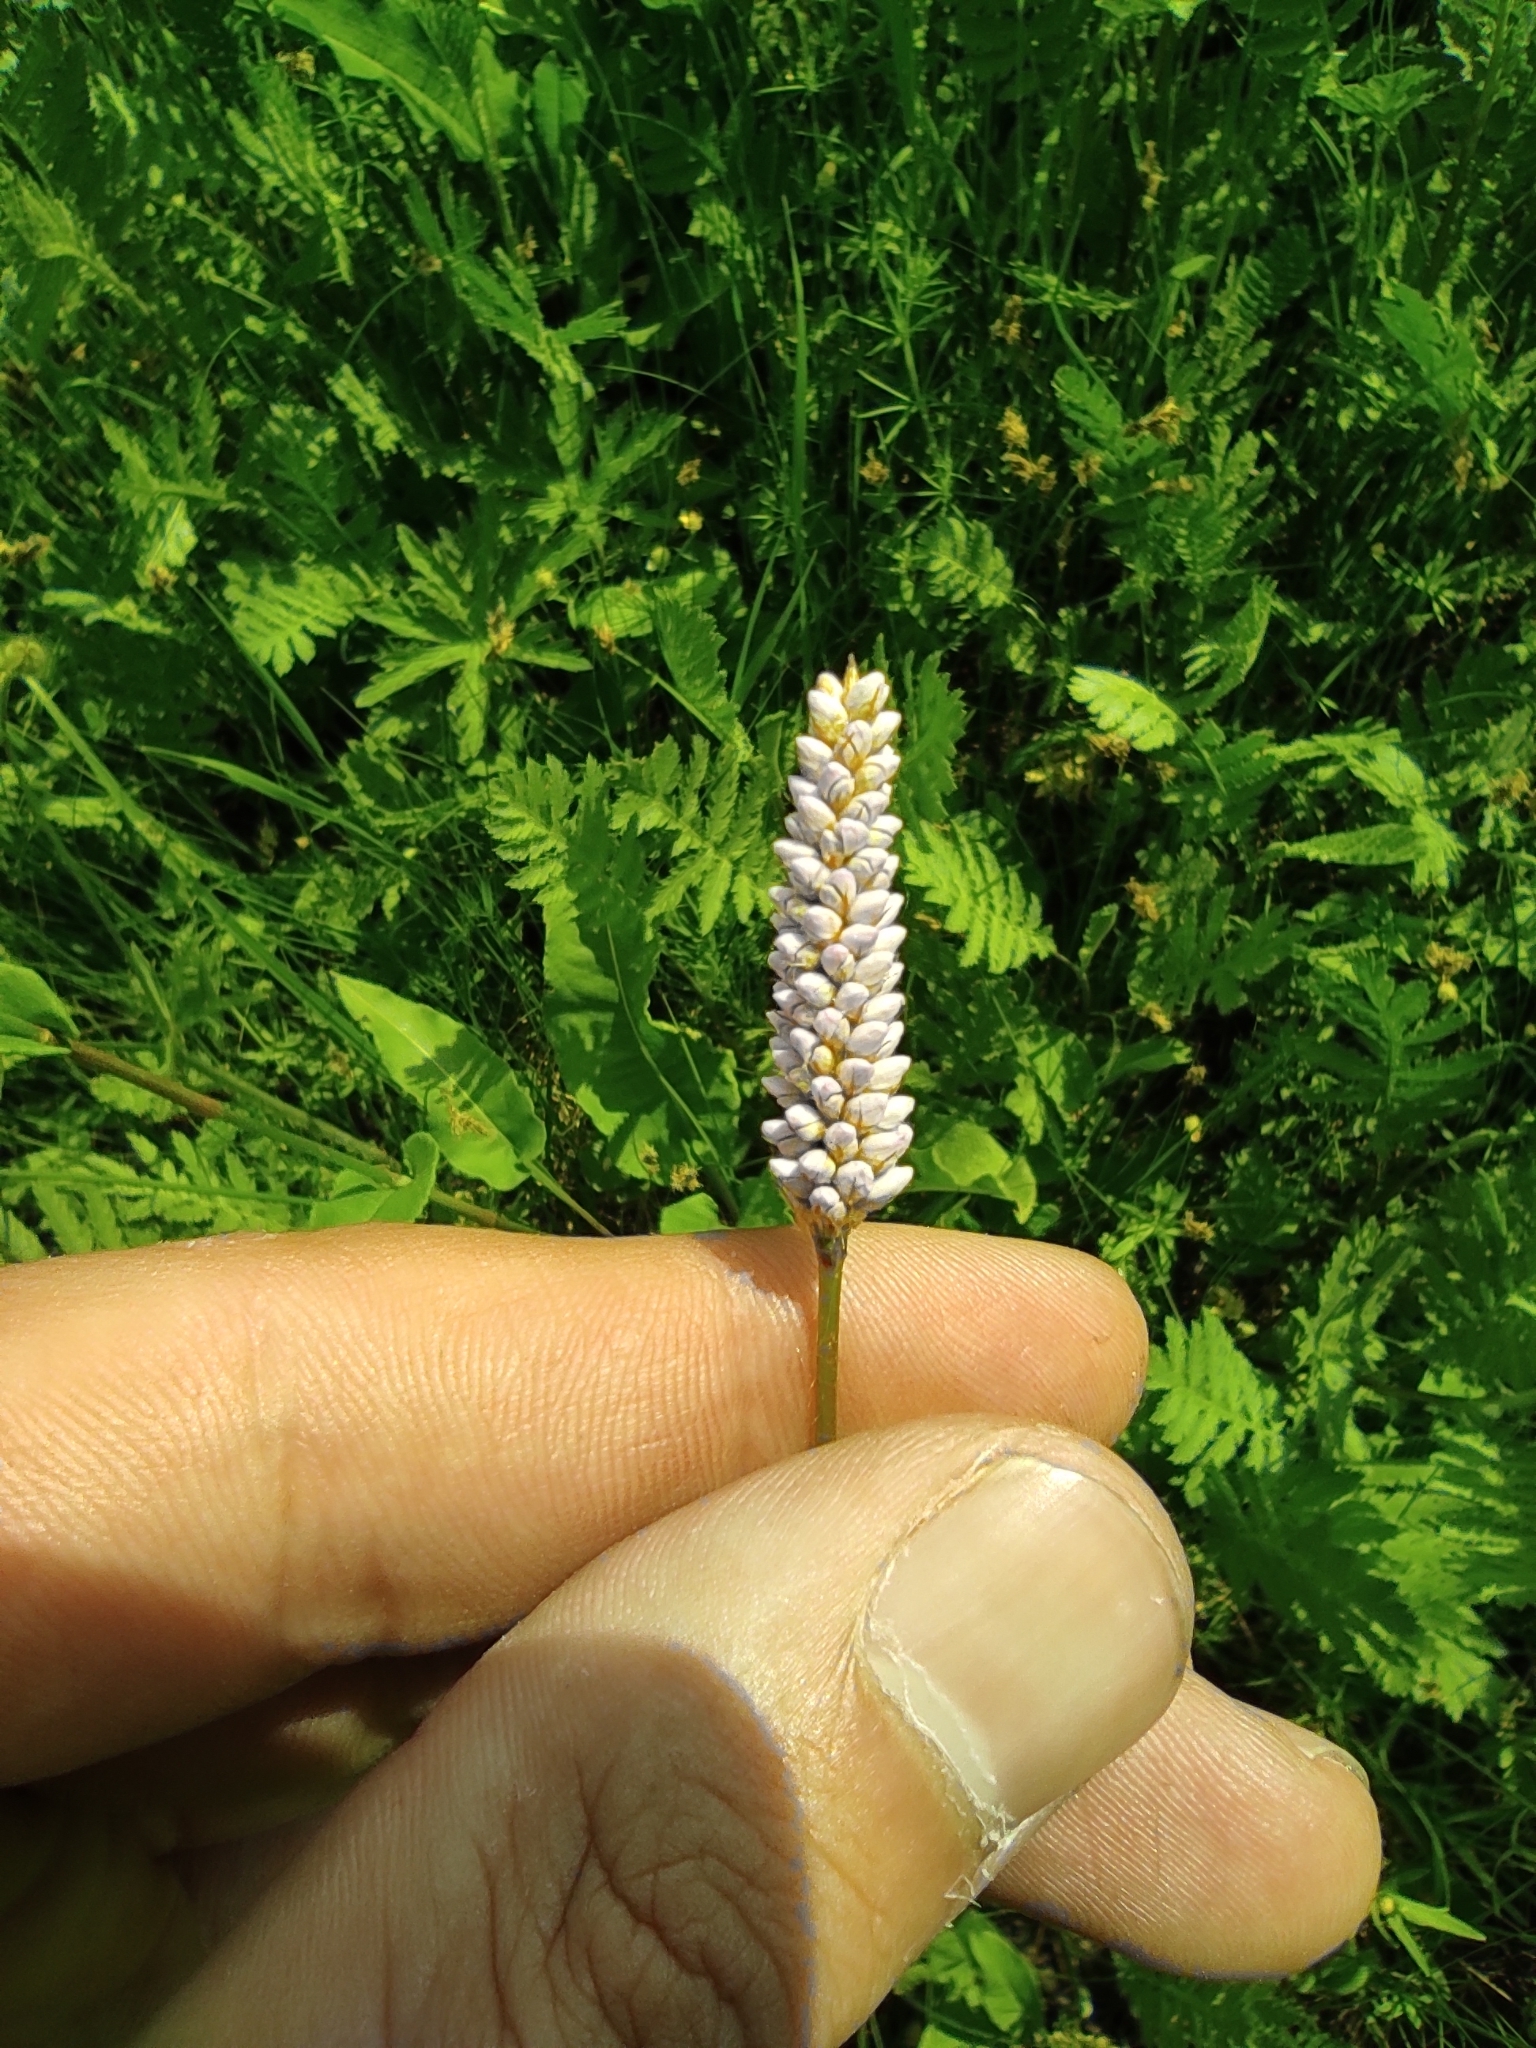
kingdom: Plantae
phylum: Tracheophyta
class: Magnoliopsida
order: Caryophyllales
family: Polygonaceae
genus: Bistorta
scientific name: Bistorta officinalis
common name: Common bistort
